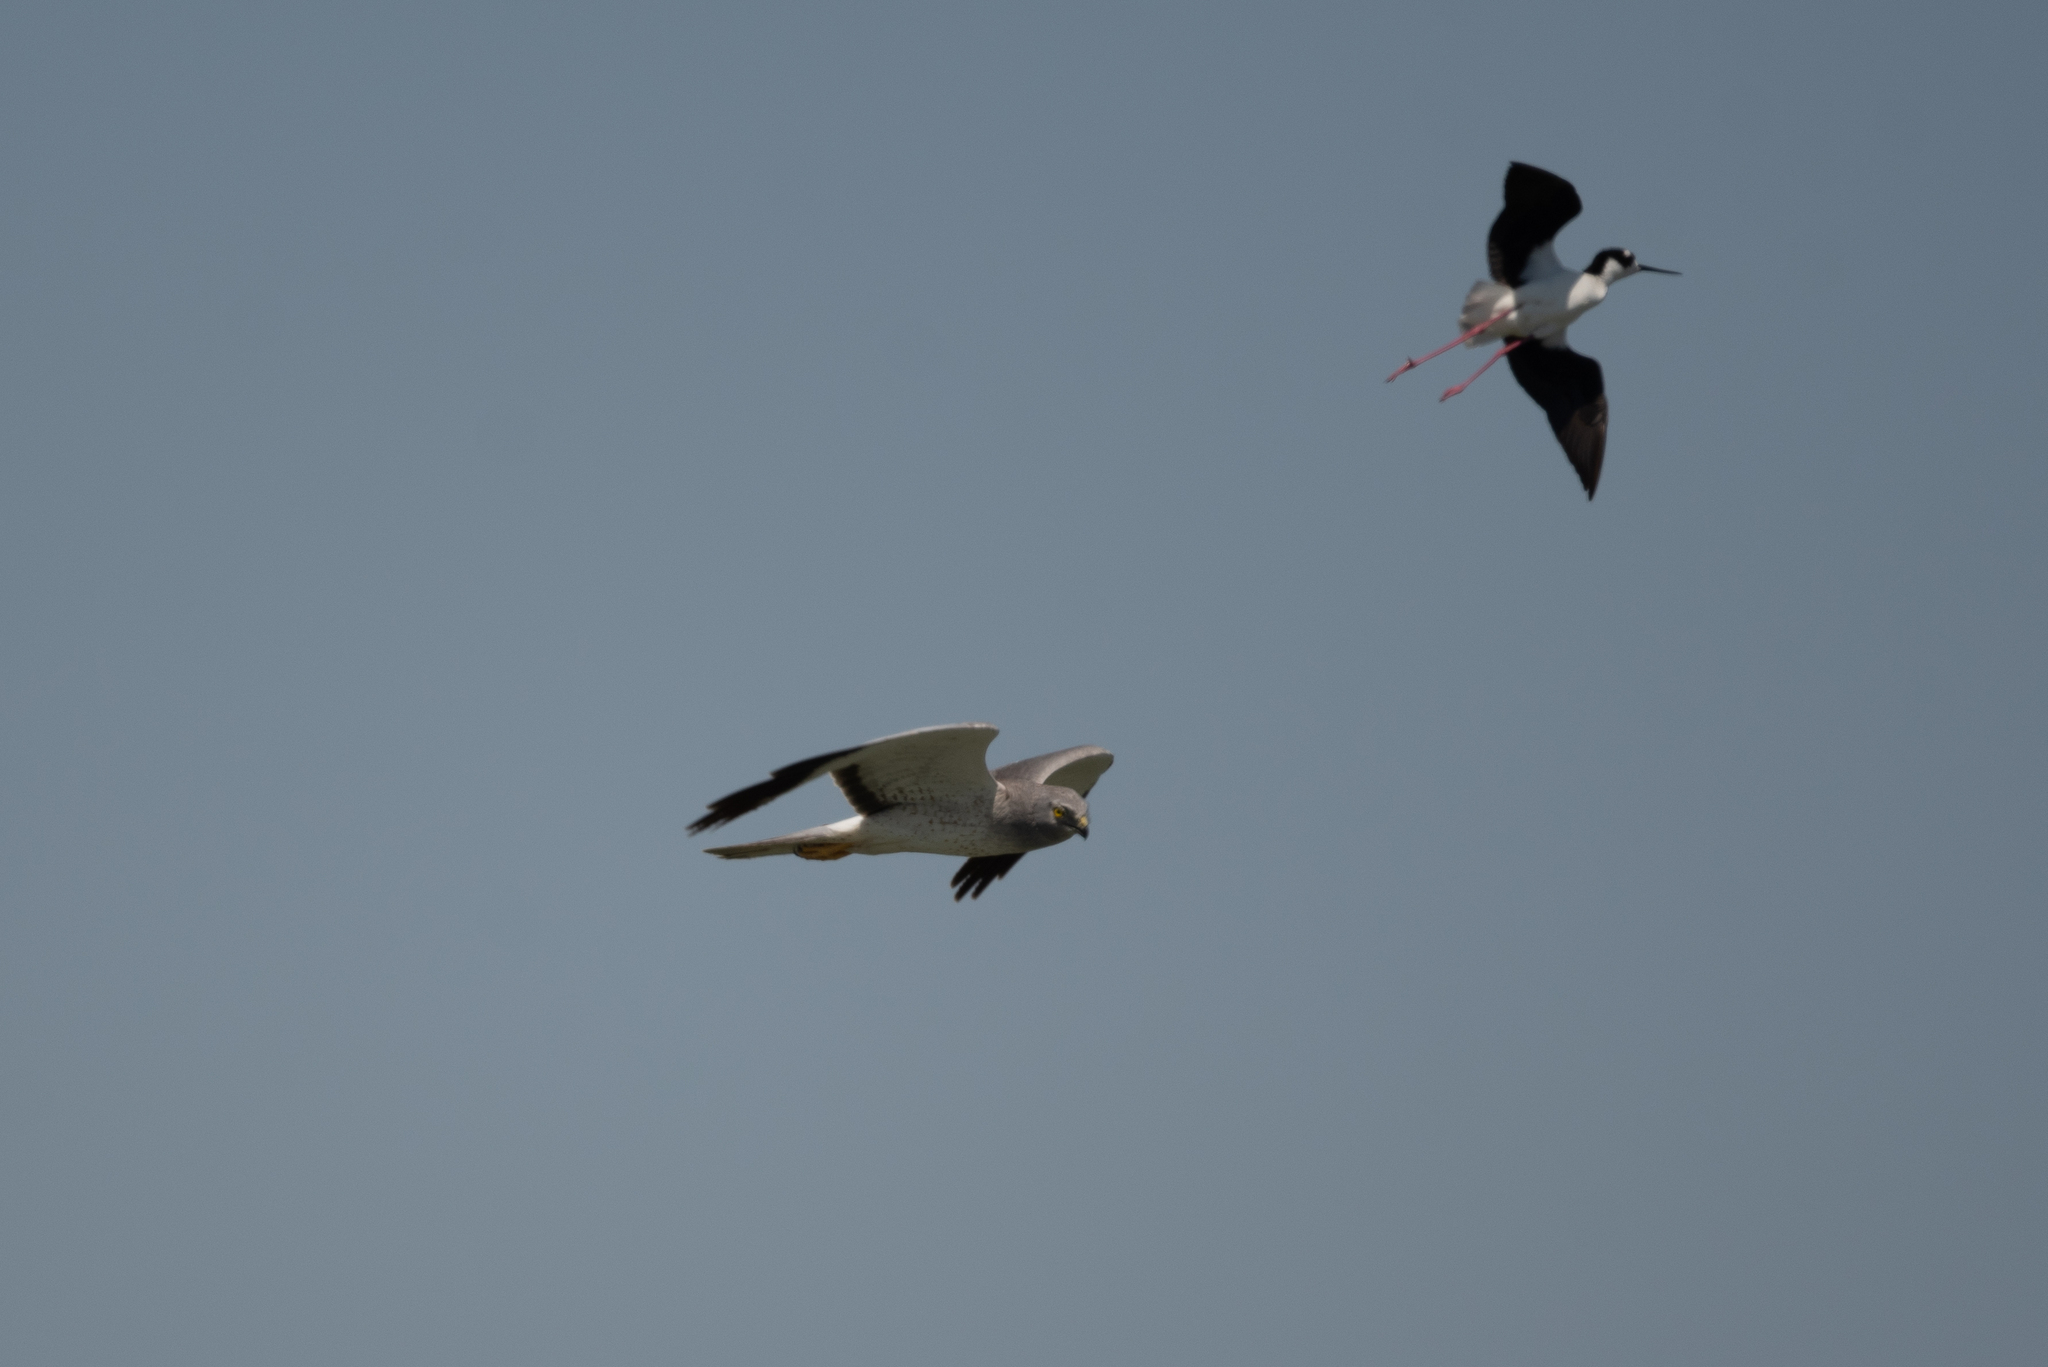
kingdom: Animalia
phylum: Chordata
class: Aves
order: Charadriiformes
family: Recurvirostridae
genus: Himantopus
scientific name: Himantopus mexicanus
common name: Black-necked stilt
